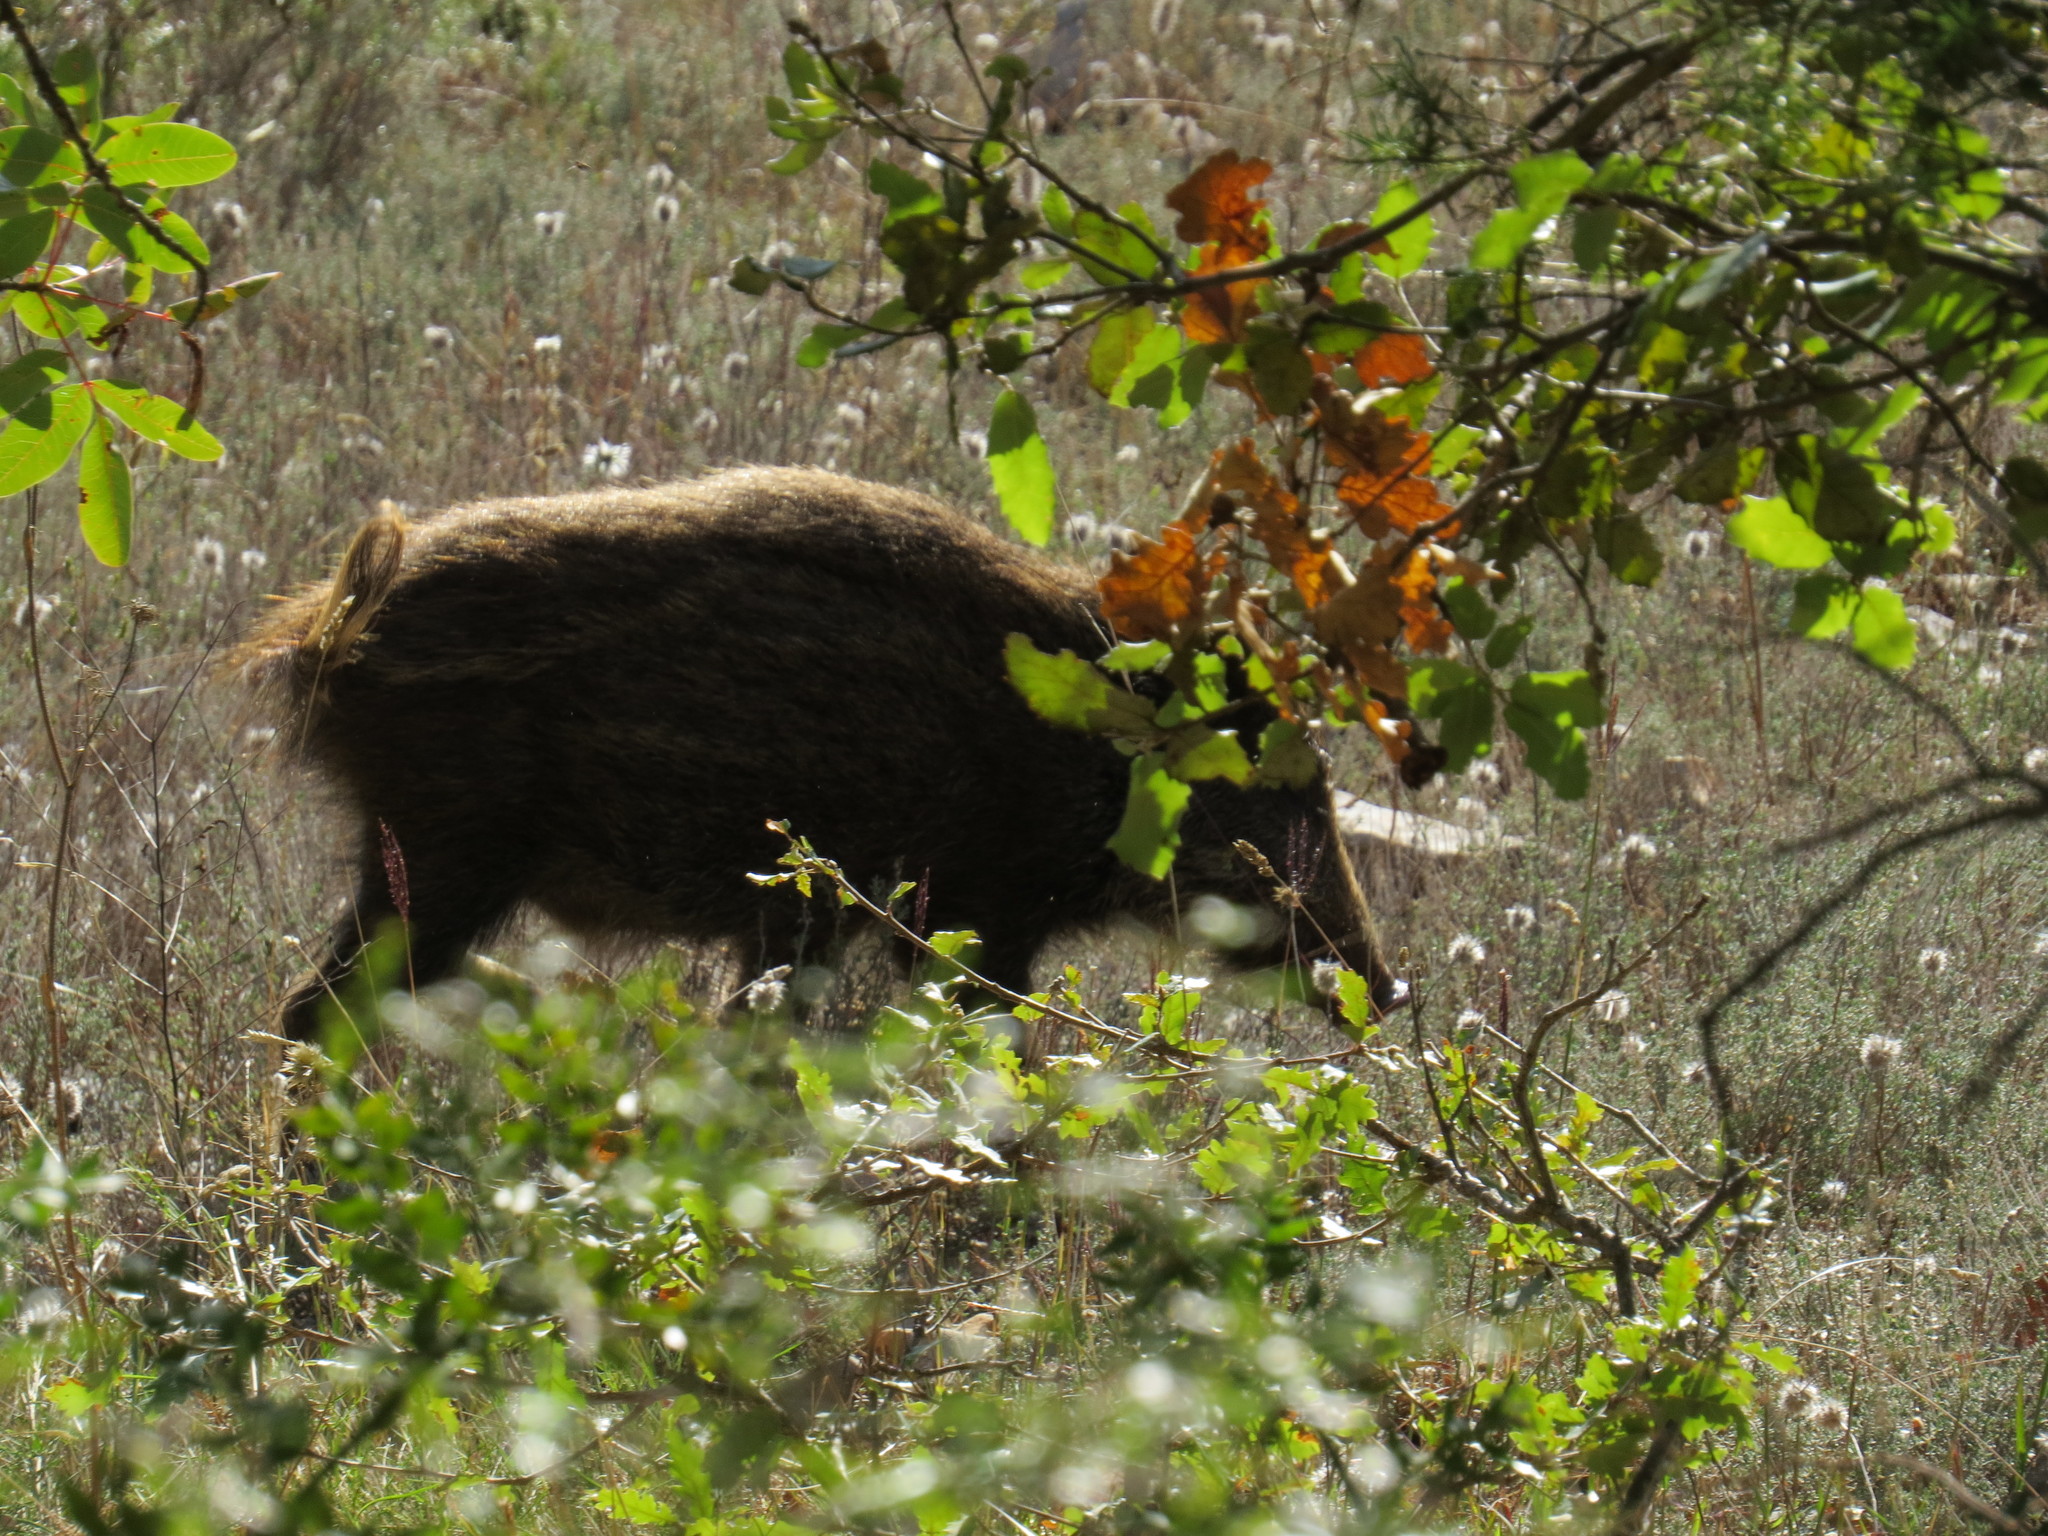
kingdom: Animalia
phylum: Chordata
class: Mammalia
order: Artiodactyla
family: Suidae
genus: Sus
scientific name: Sus scrofa
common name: Wild boar
